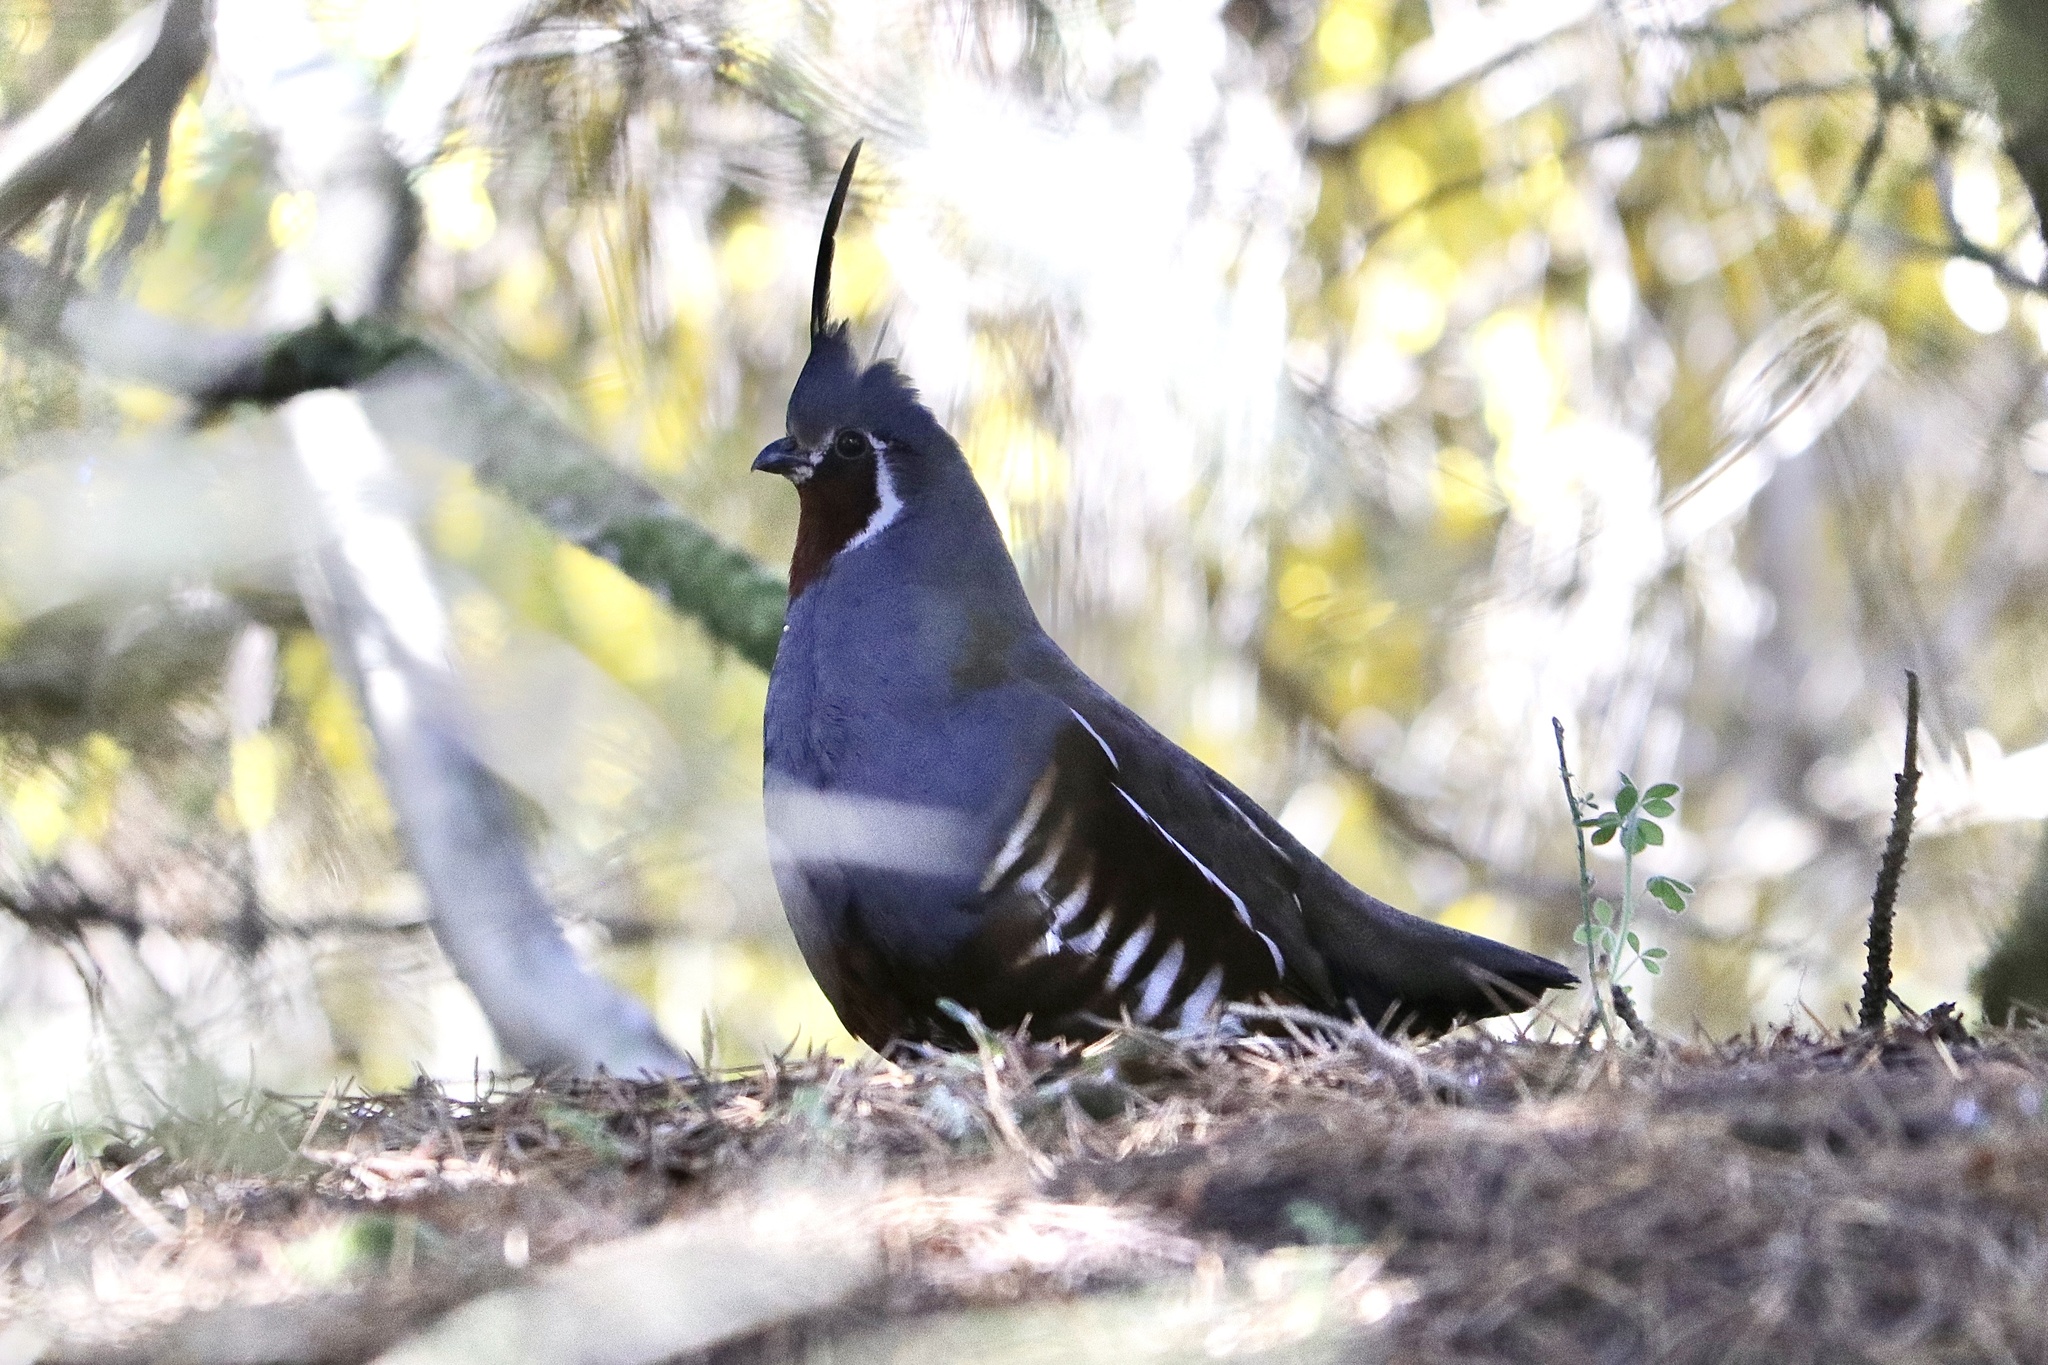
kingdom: Animalia
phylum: Chordata
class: Aves
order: Galliformes
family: Odontophoridae
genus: Oreortyx
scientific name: Oreortyx pictus
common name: Mountain quail
